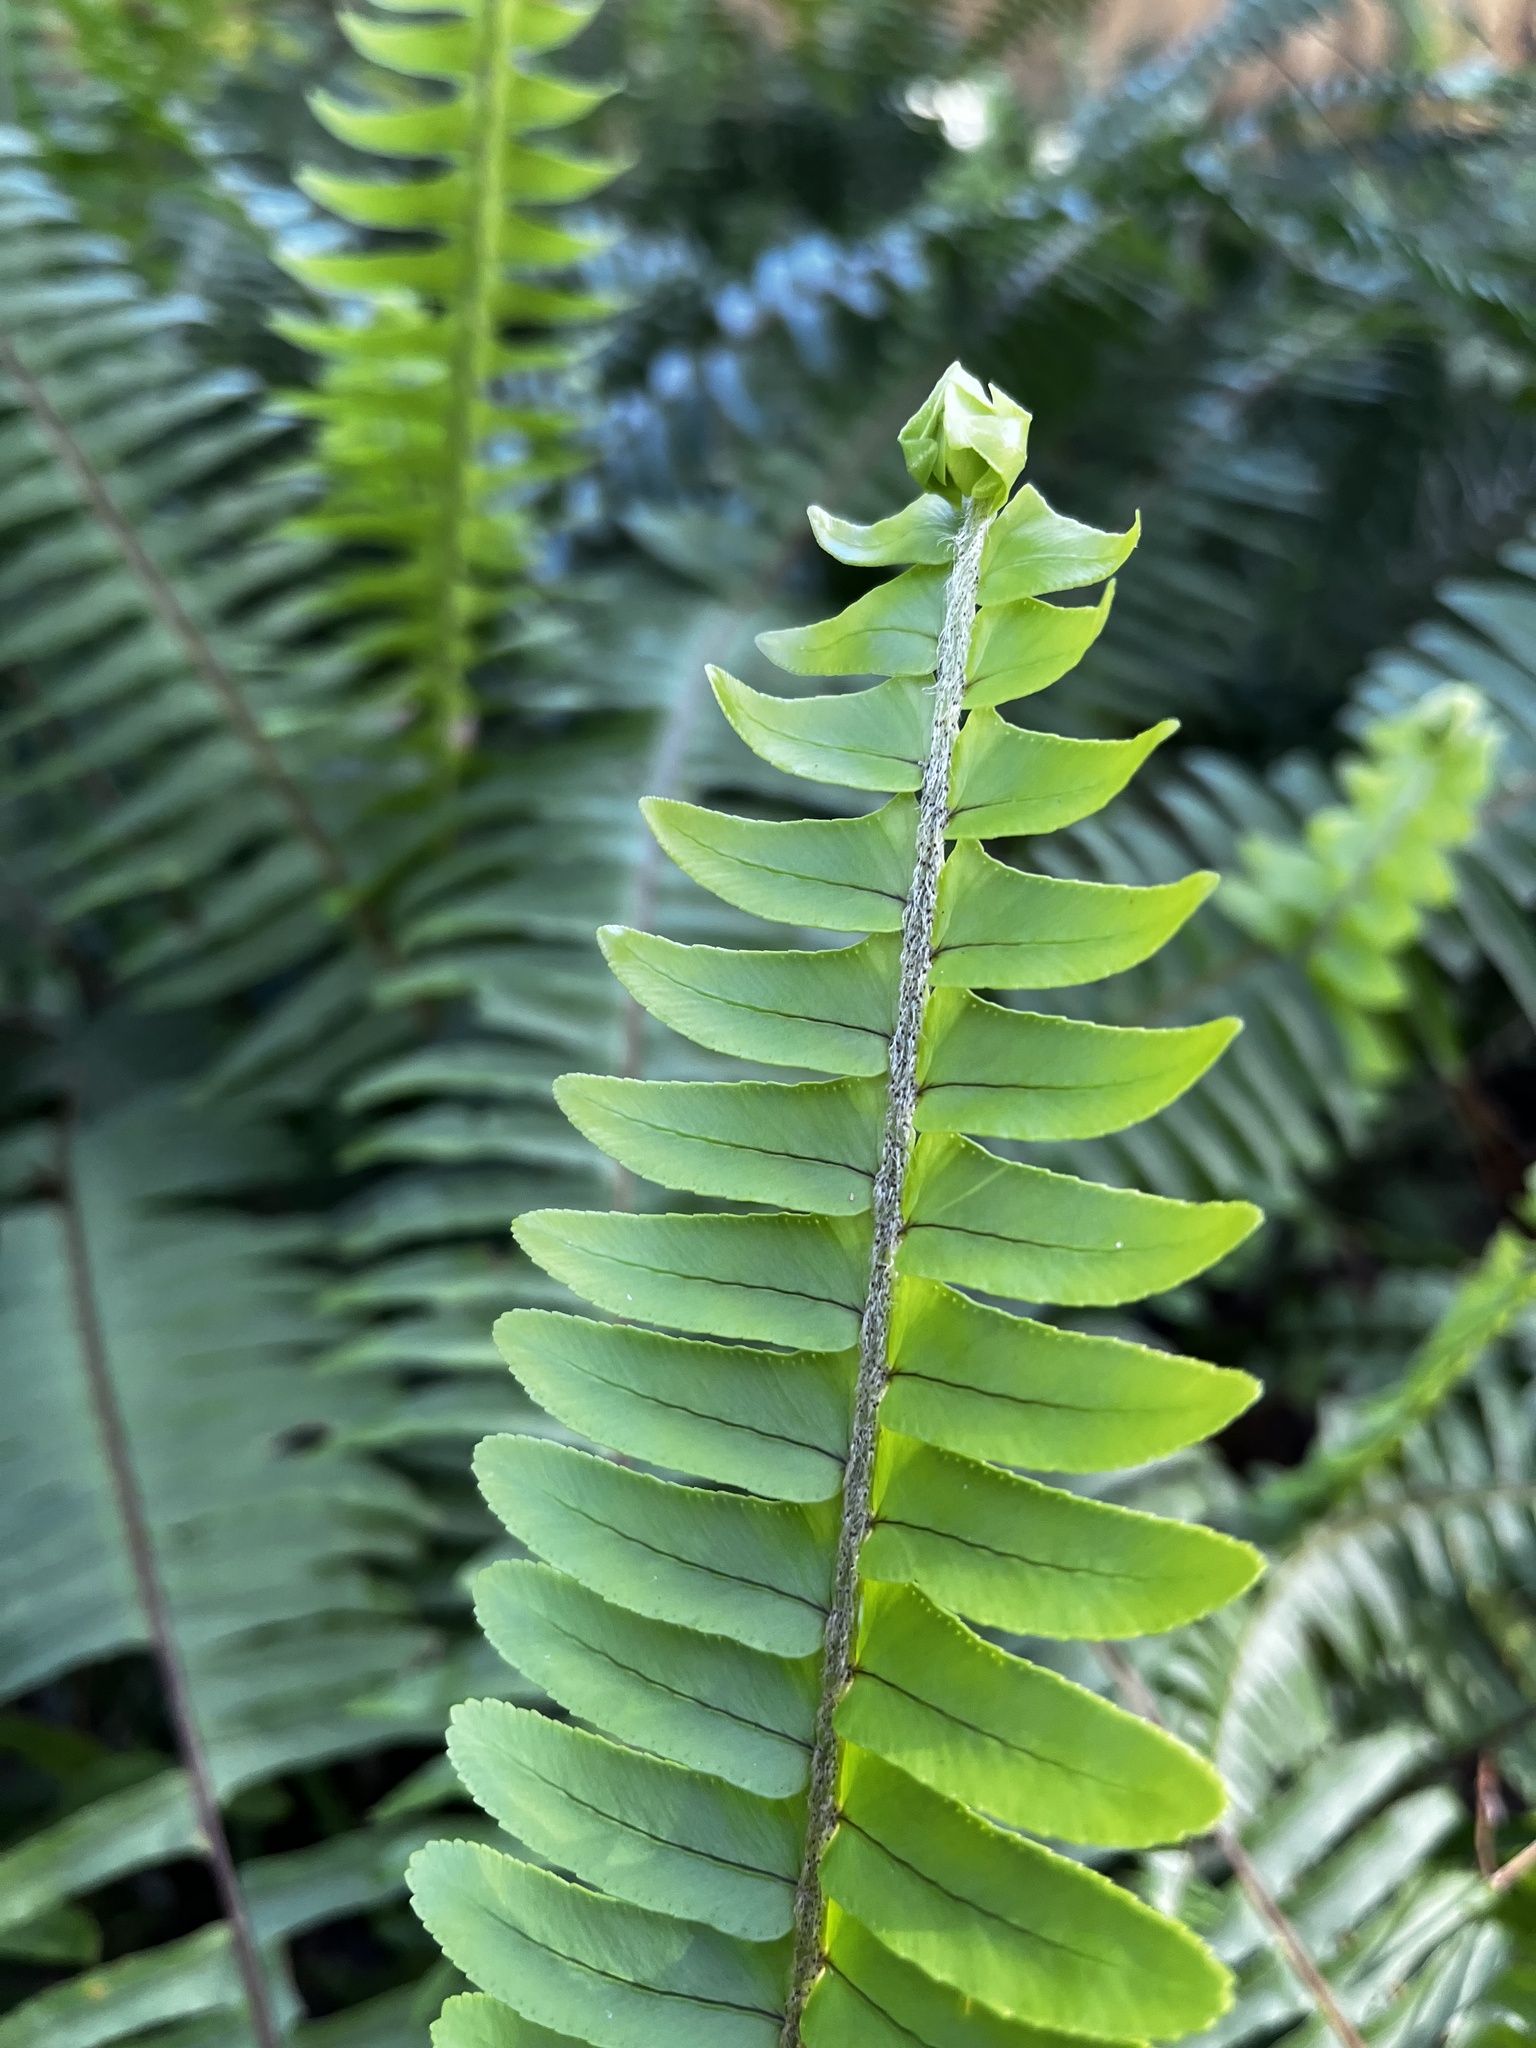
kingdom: Plantae
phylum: Tracheophyta
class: Polypodiopsida
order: Polypodiales
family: Nephrolepidaceae
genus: Nephrolepis
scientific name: Nephrolepis cordifolia
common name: Narrow swordfern
